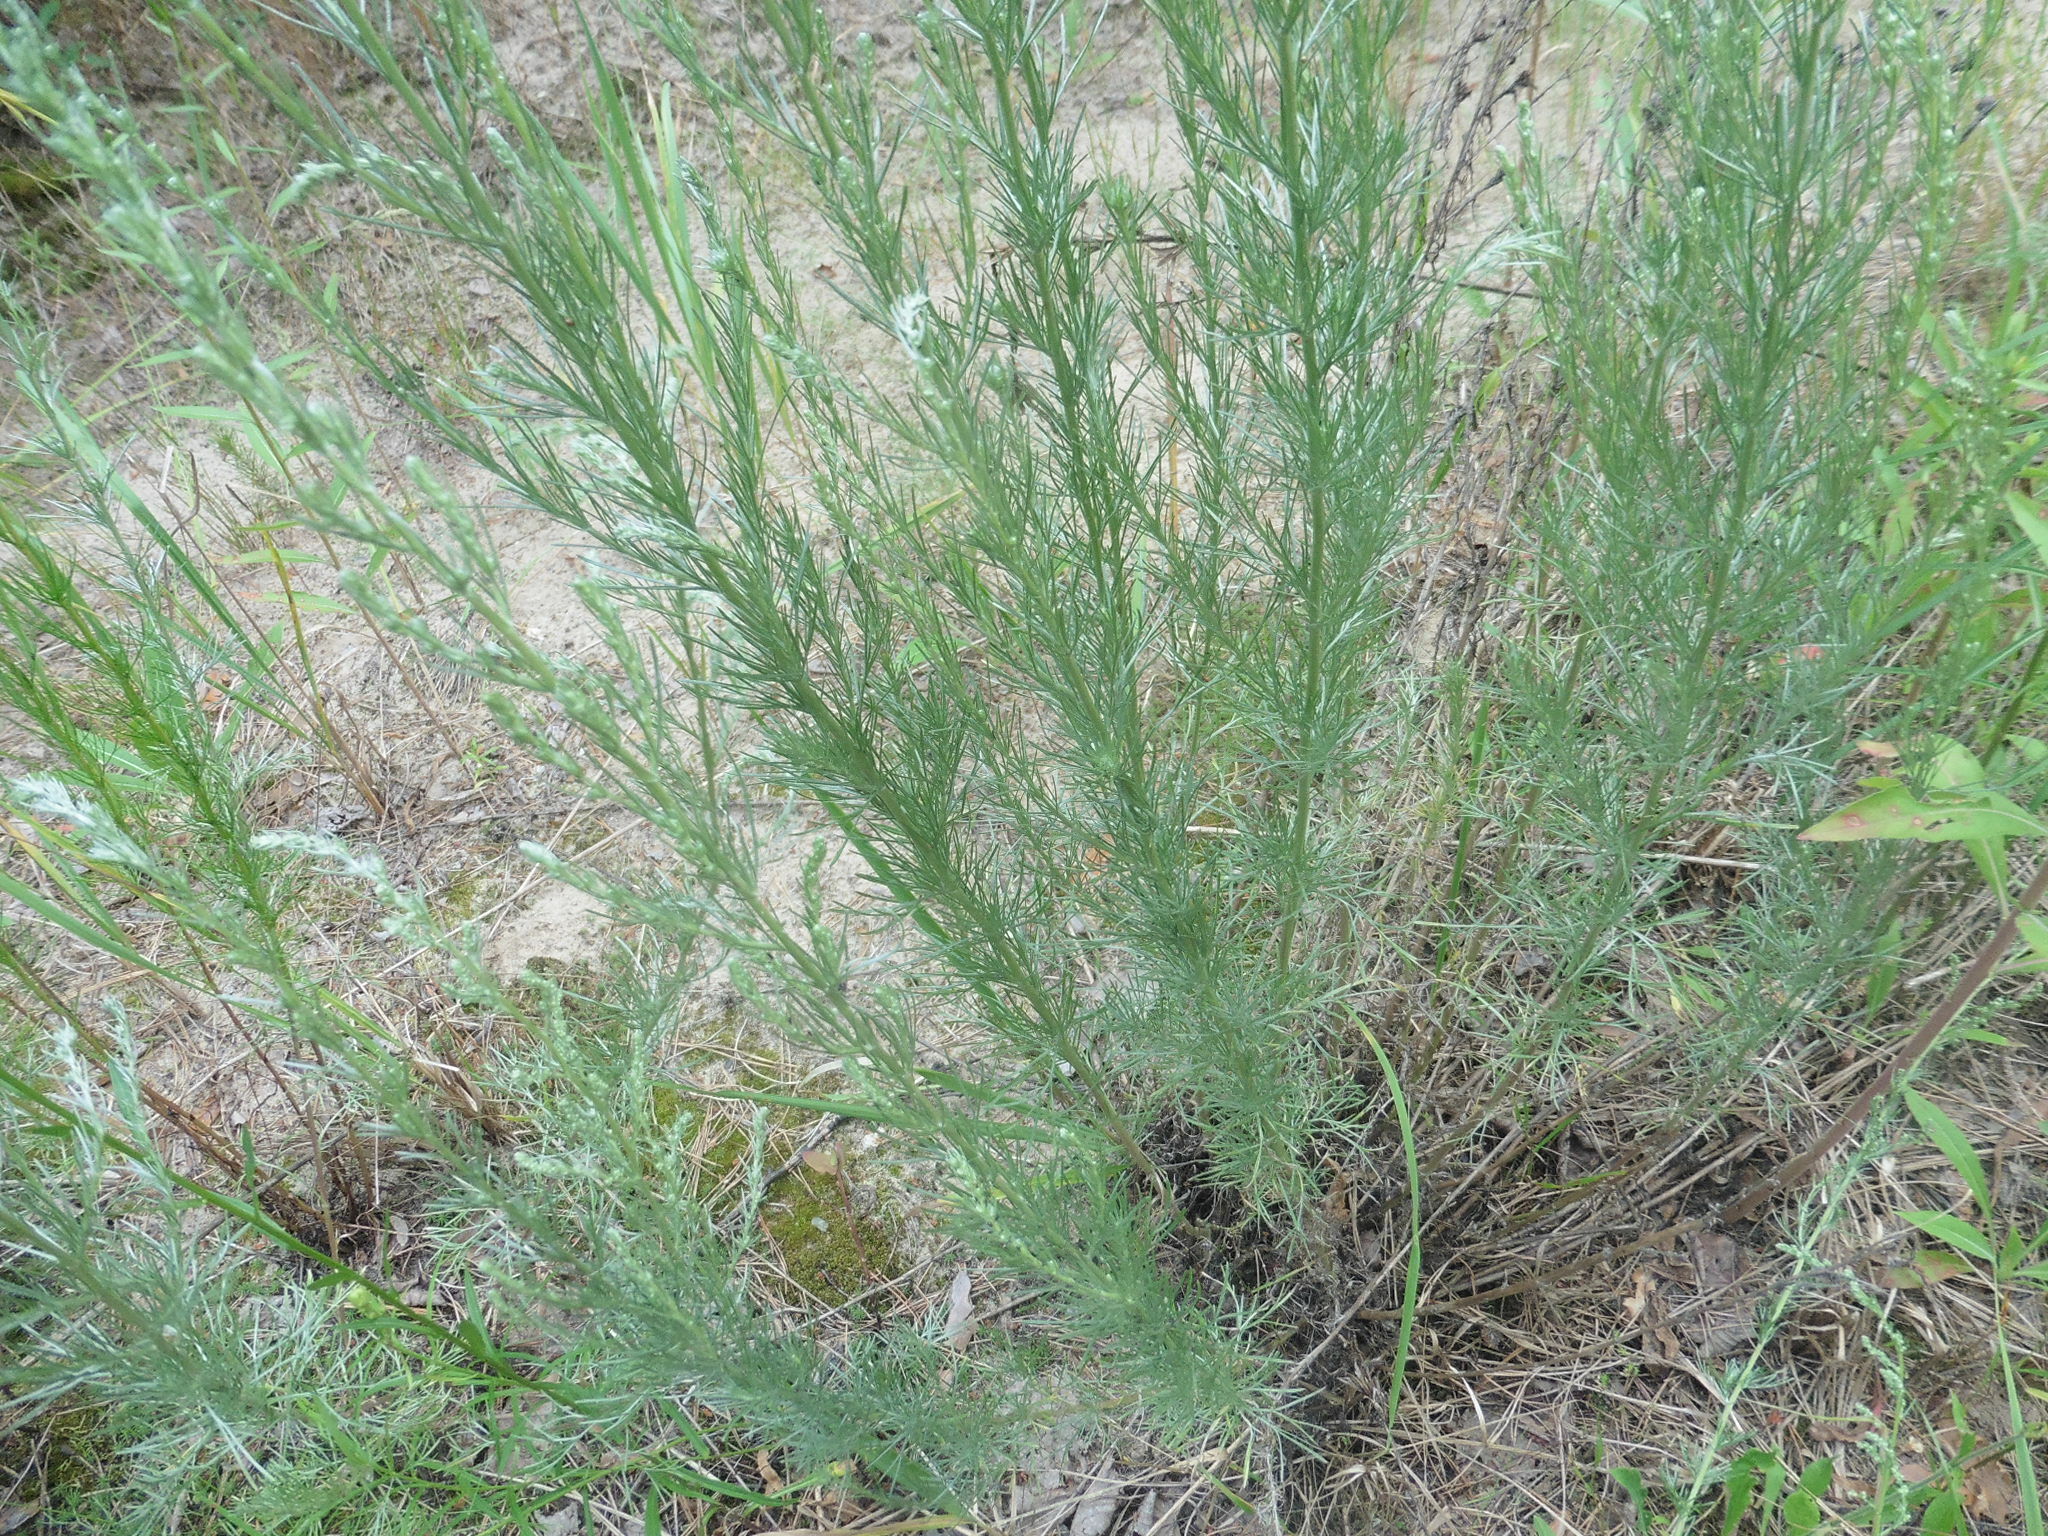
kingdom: Plantae
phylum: Tracheophyta
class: Magnoliopsida
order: Asterales
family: Asteraceae
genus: Artemisia
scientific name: Artemisia campestris
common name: Field wormwood
